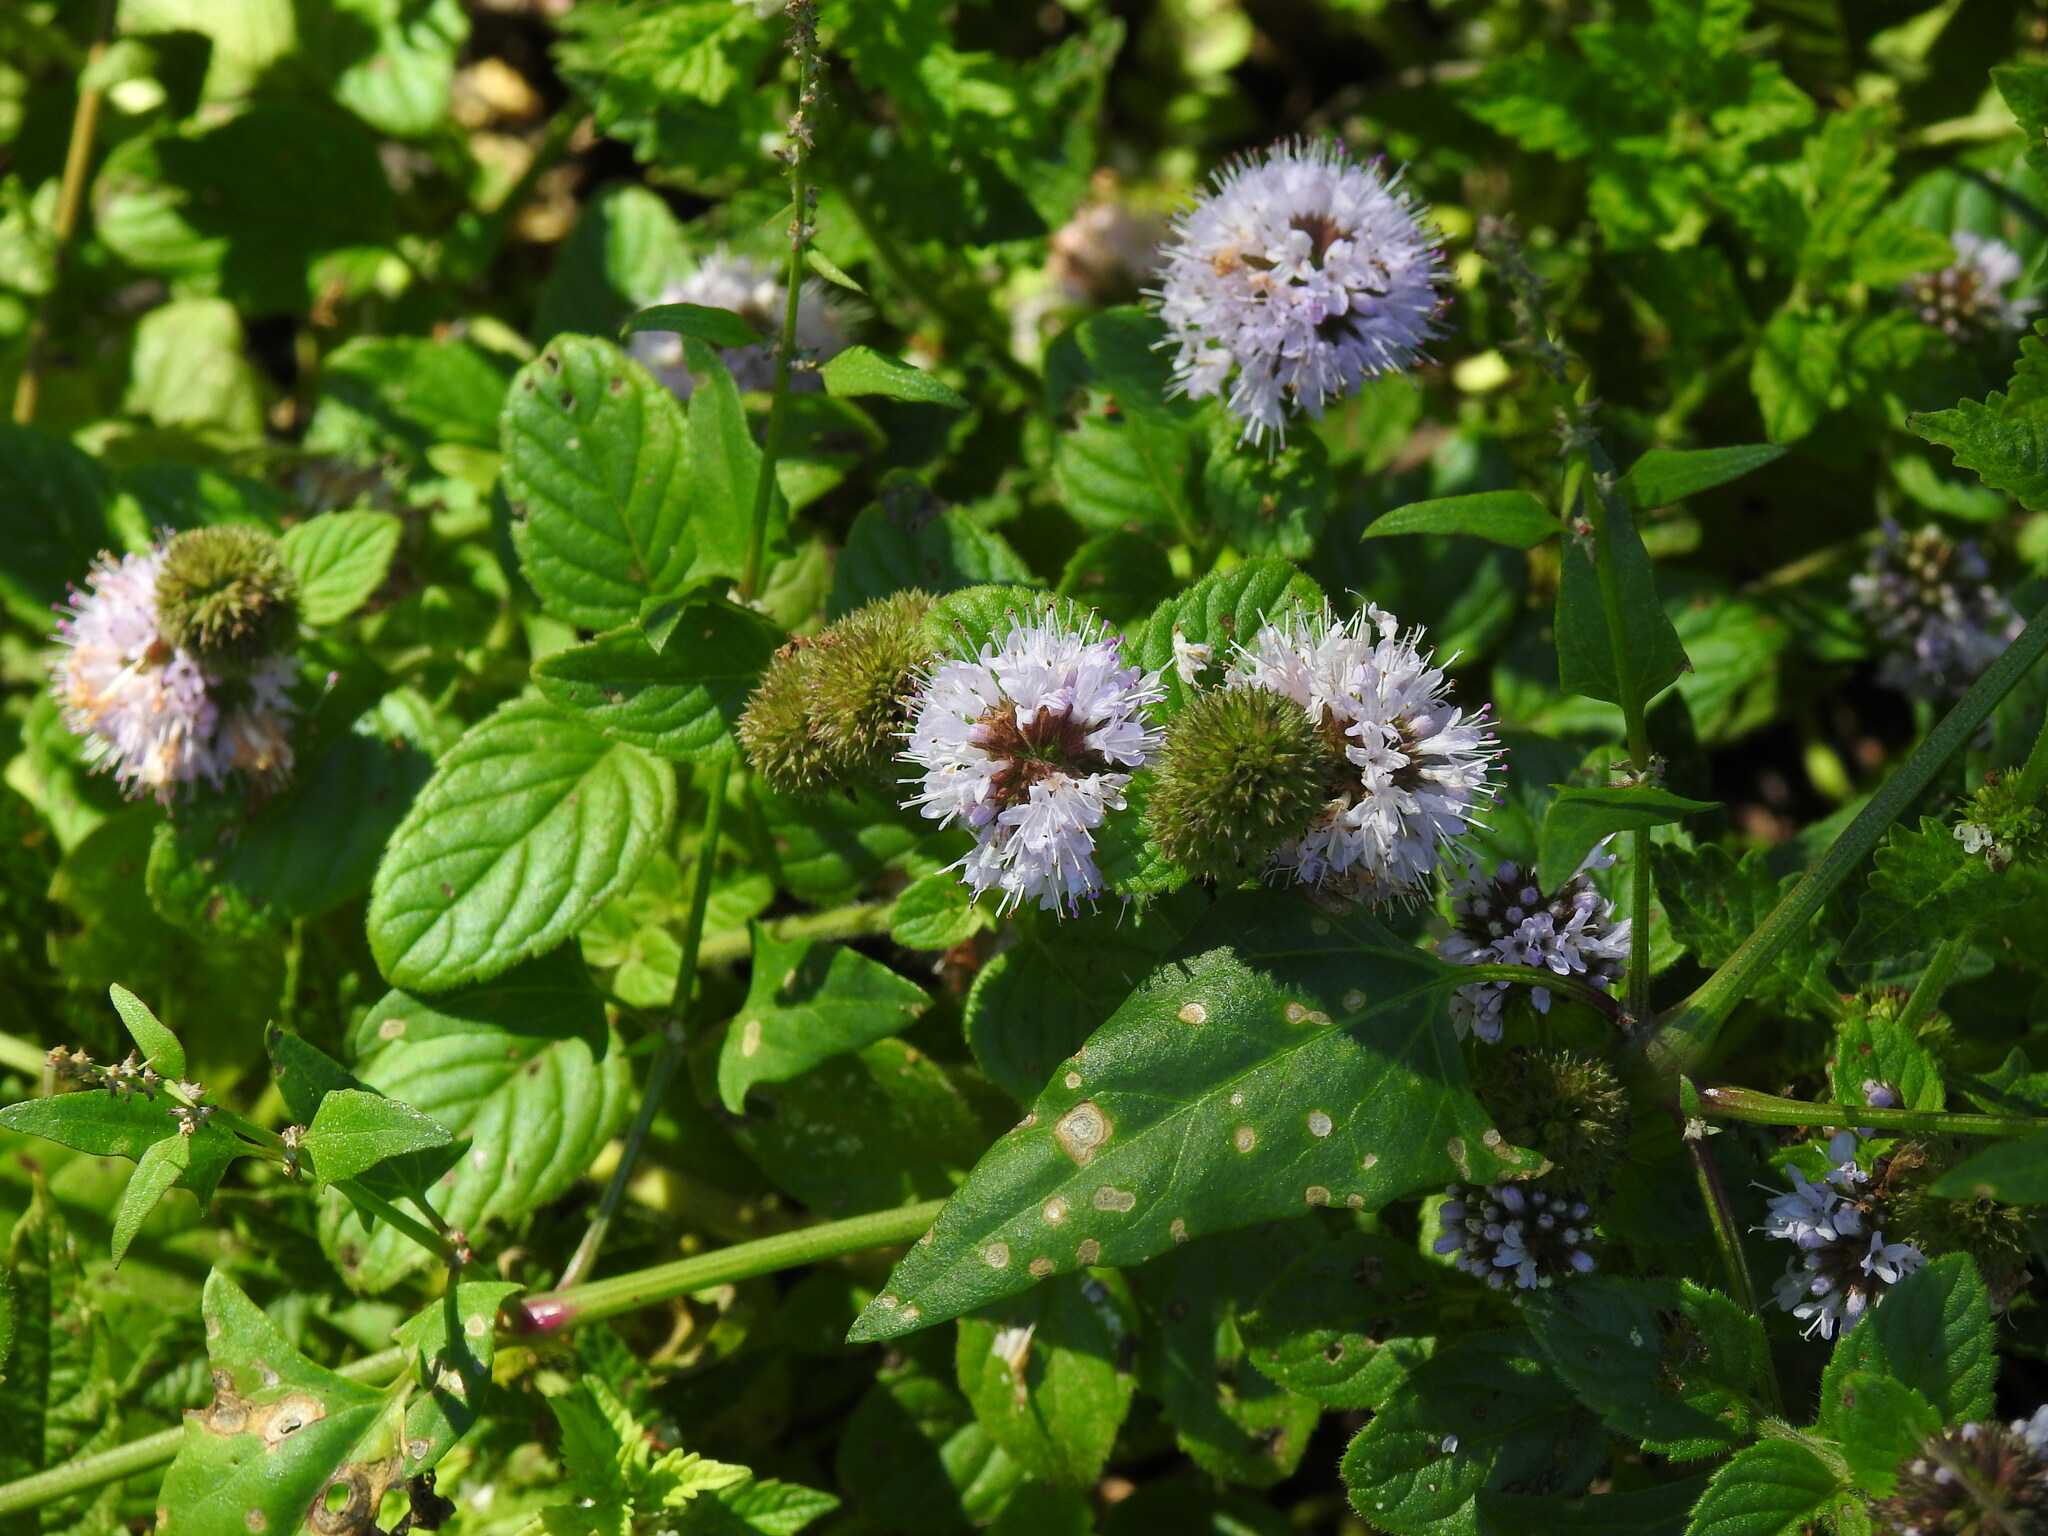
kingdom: Plantae
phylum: Tracheophyta
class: Magnoliopsida
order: Lamiales
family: Lamiaceae
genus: Mentha
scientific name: Mentha aquatica
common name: Water mint
